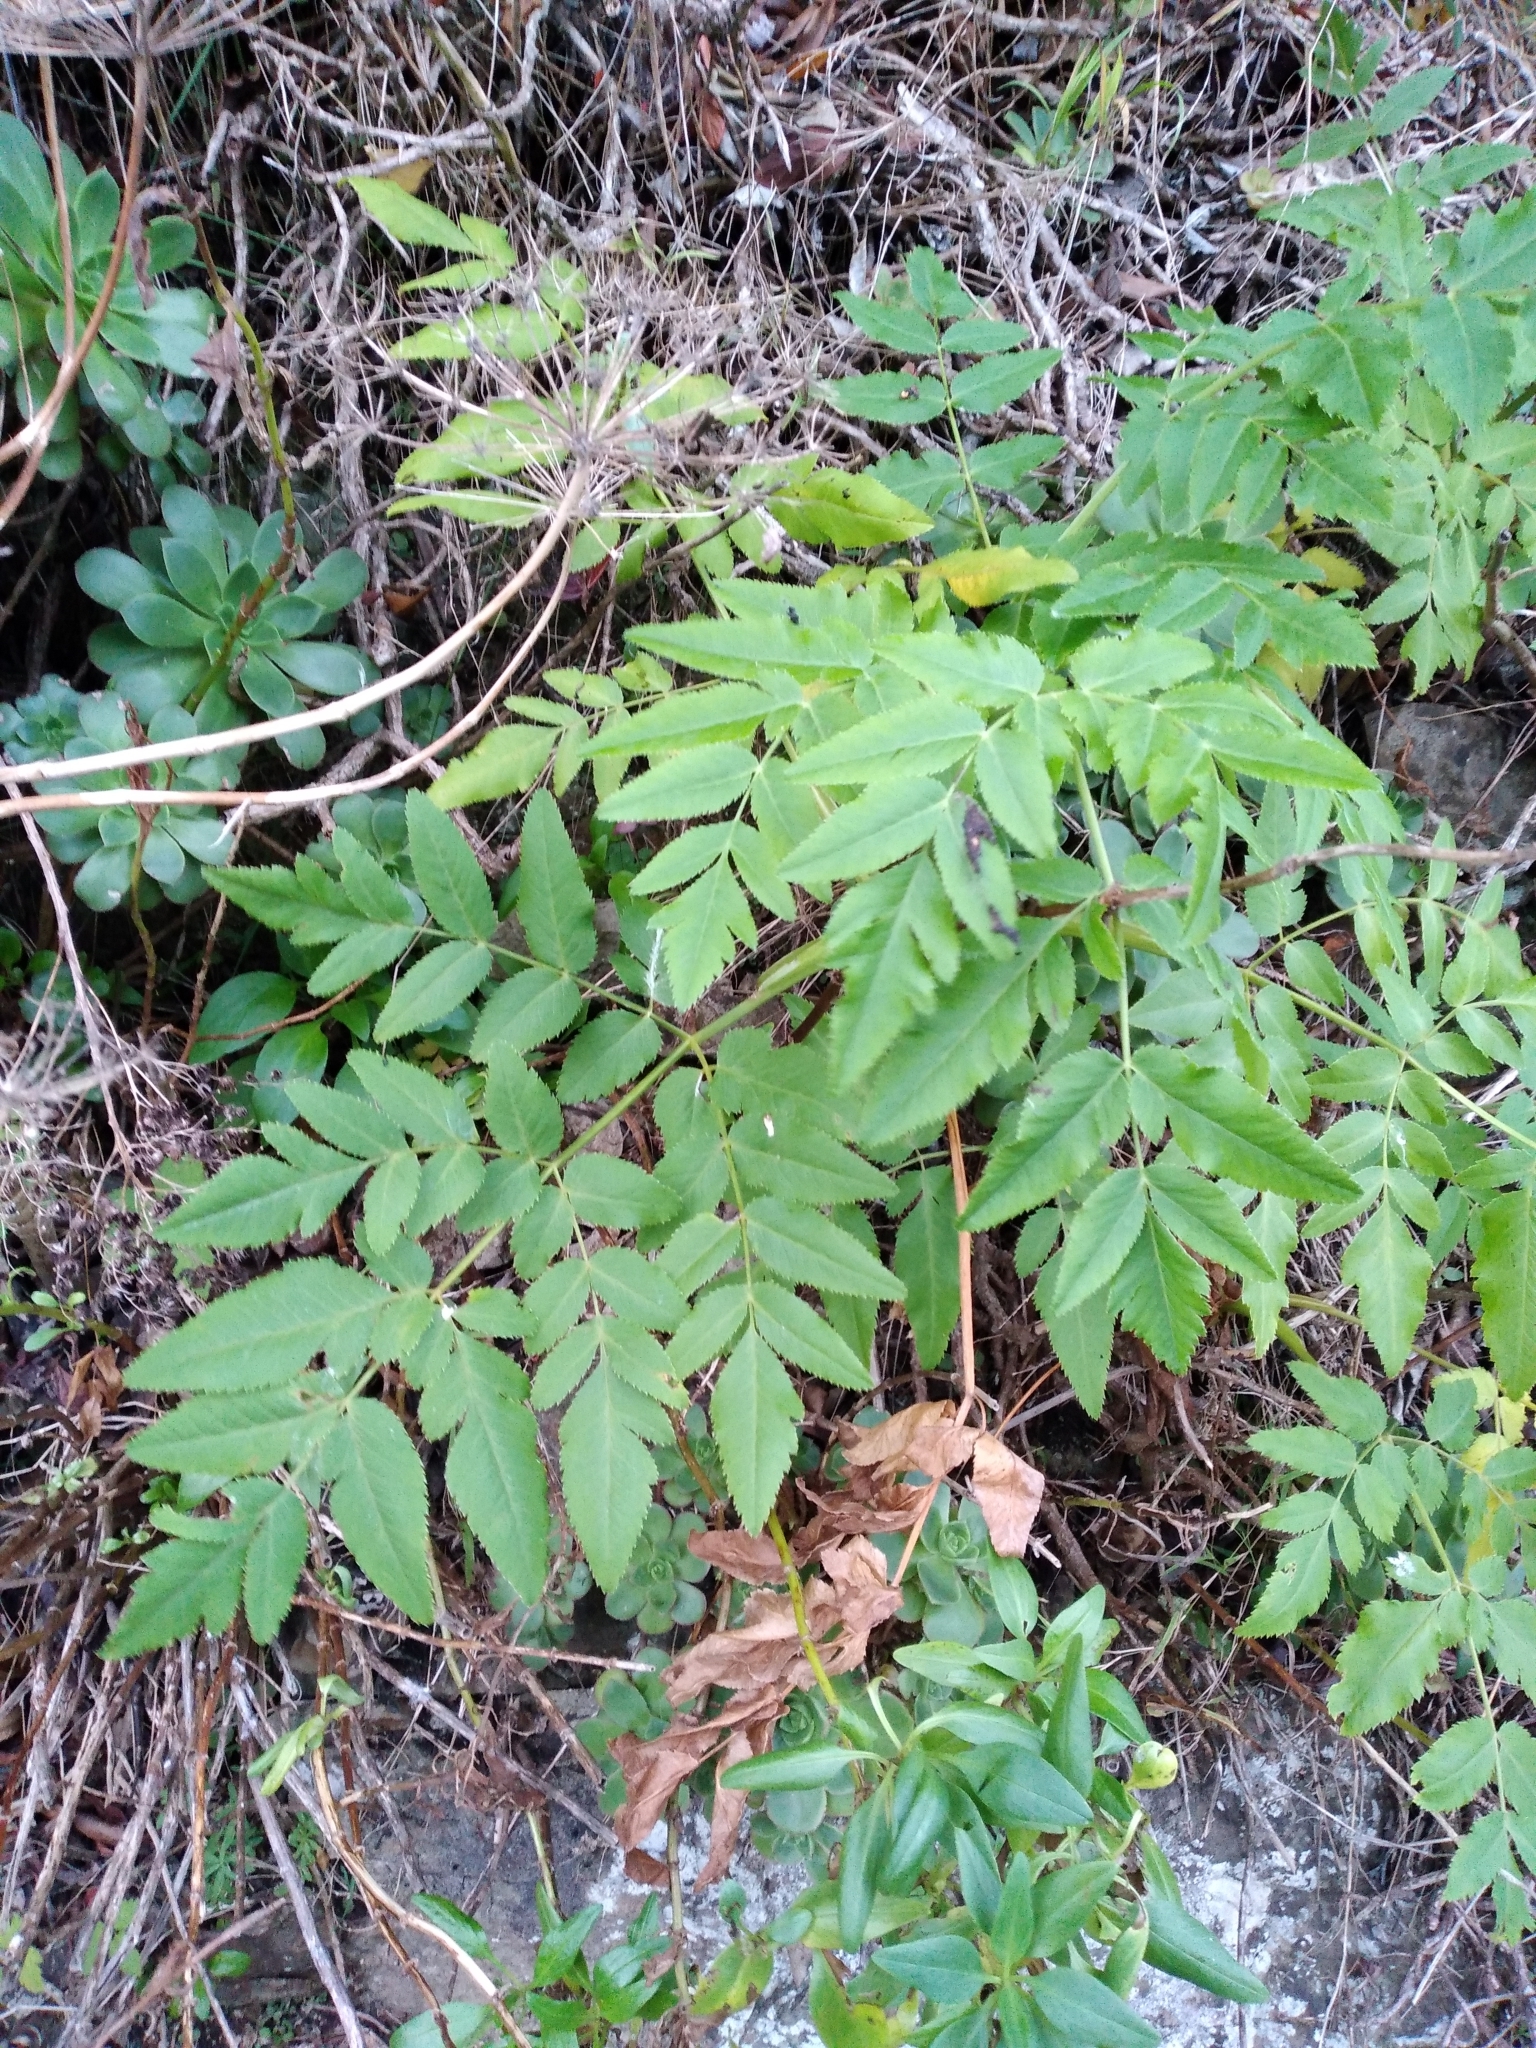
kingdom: Plantae
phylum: Tracheophyta
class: Magnoliopsida
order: Apiales
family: Apiaceae
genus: Daucus
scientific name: Daucus decipiens
